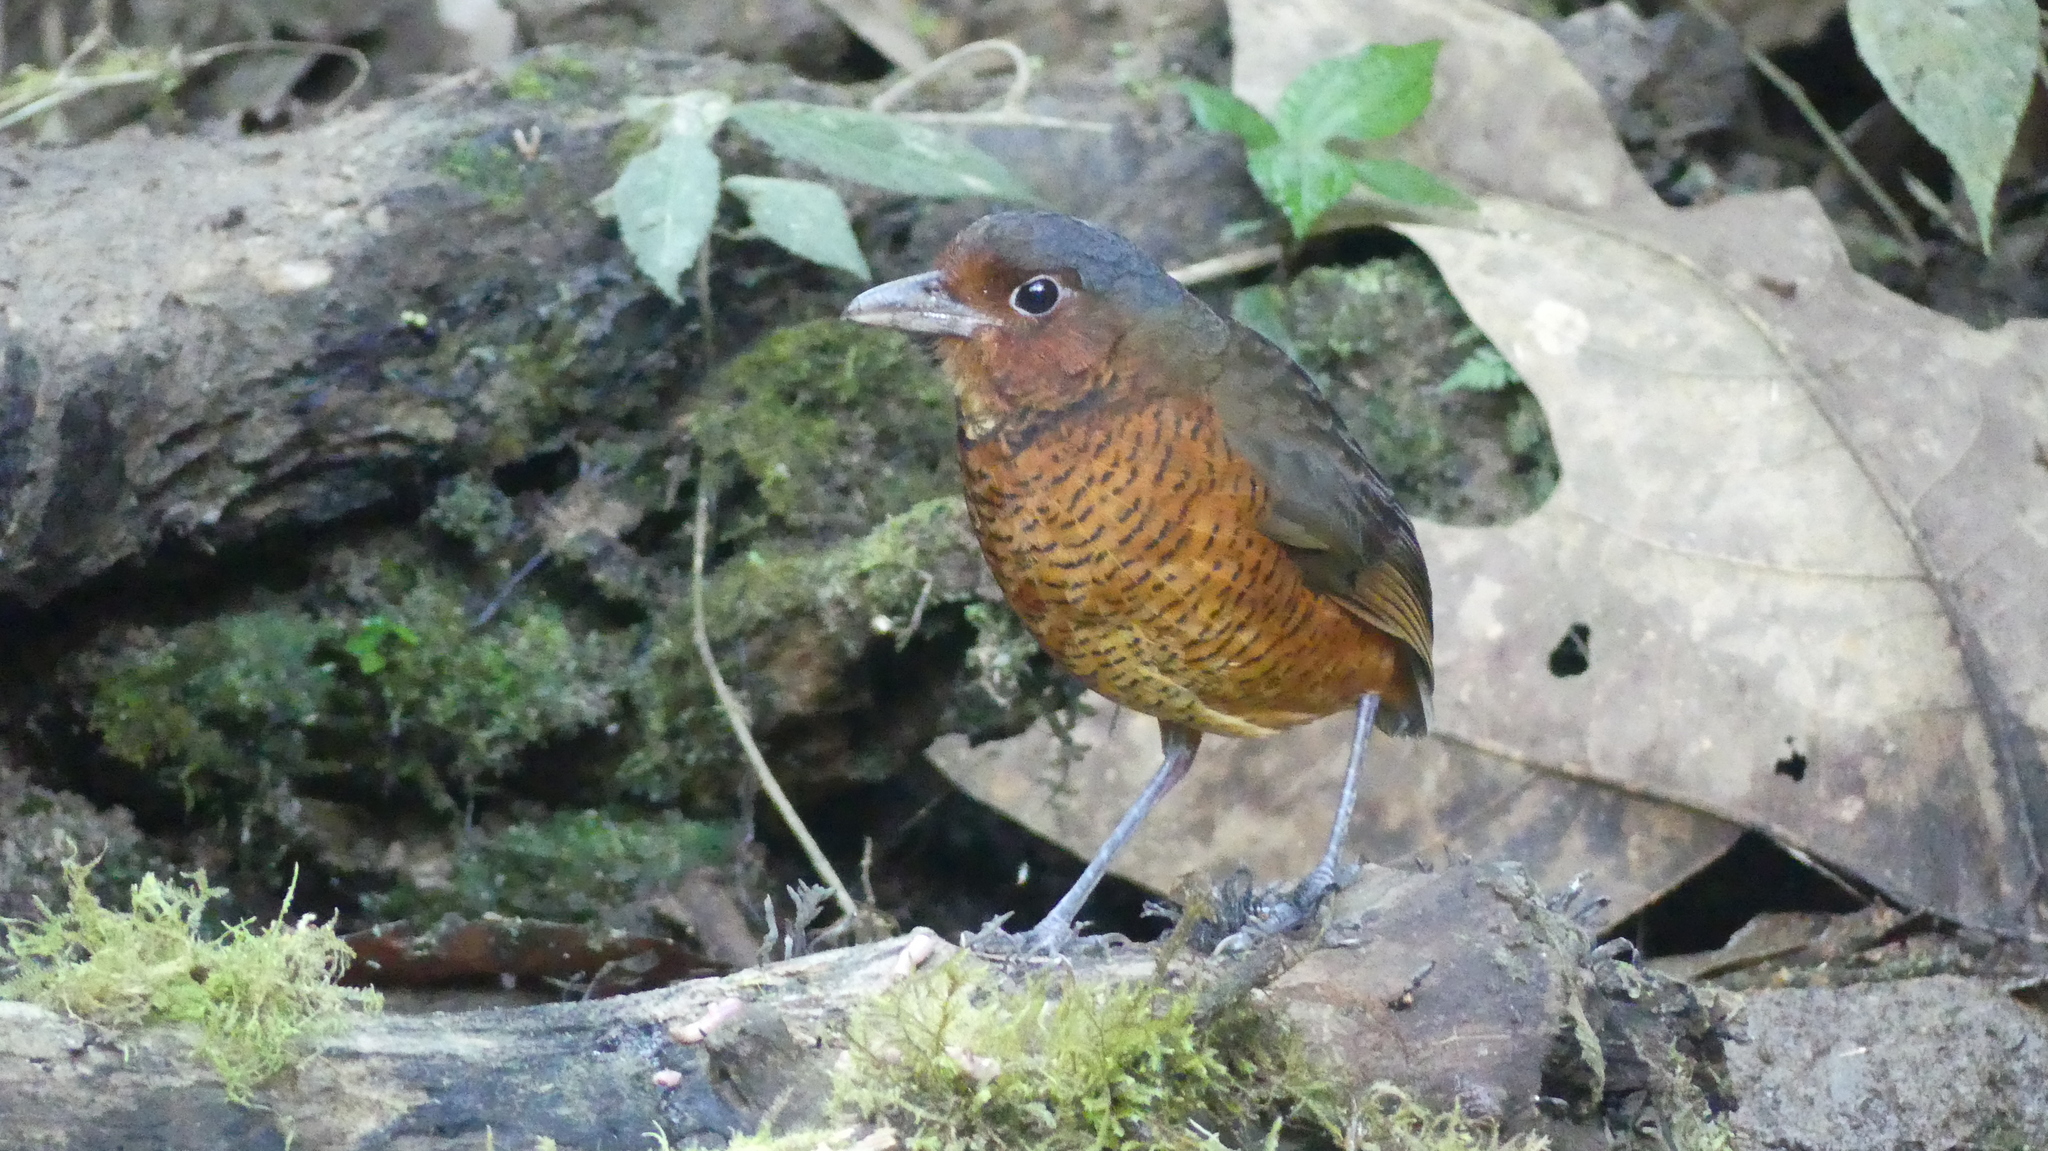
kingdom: Animalia
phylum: Chordata
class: Aves
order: Passeriformes
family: Grallariidae
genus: Grallaria
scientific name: Grallaria gigantea
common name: Giant antpitta
